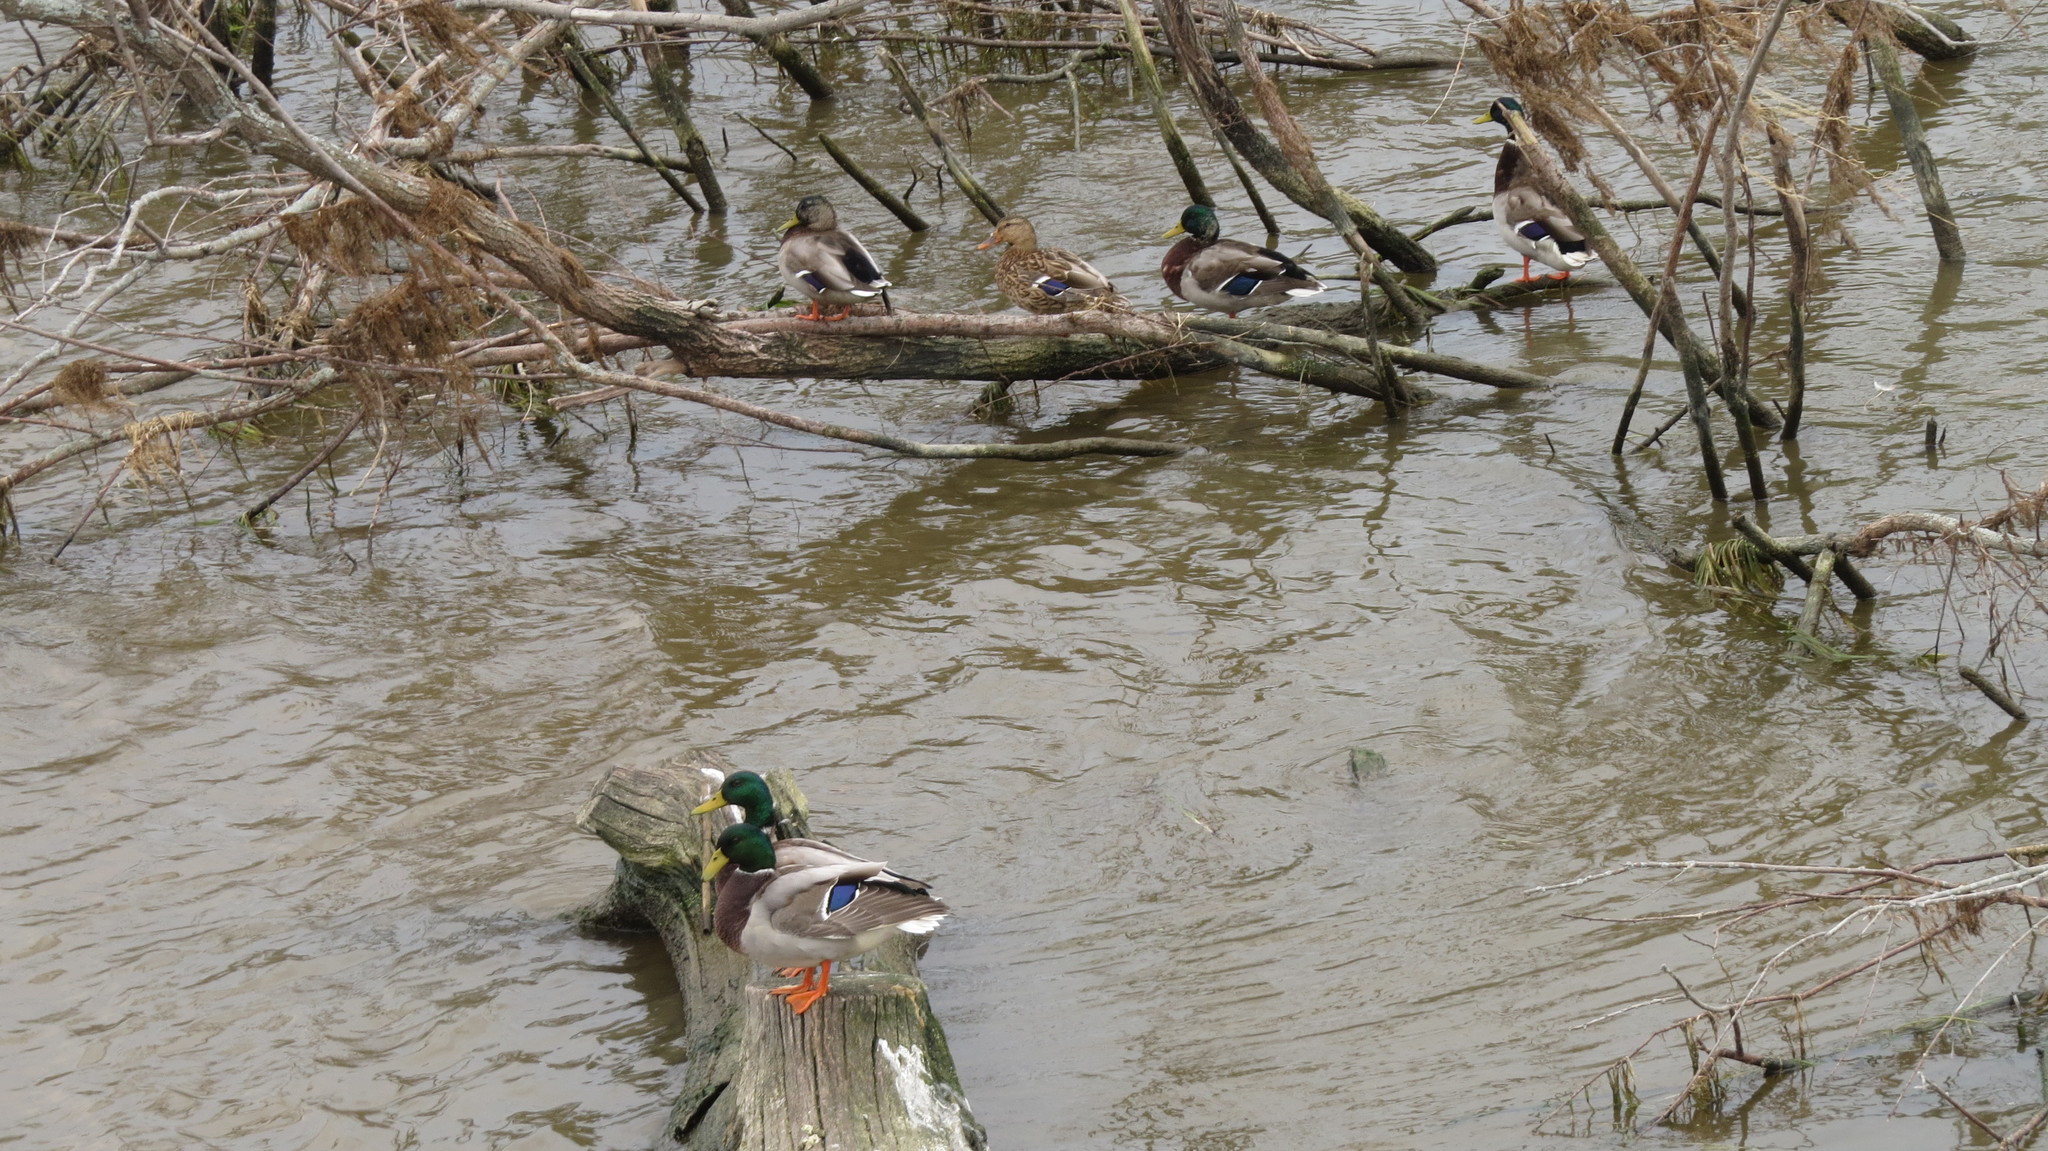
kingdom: Animalia
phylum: Chordata
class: Aves
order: Anseriformes
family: Anatidae
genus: Anas
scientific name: Anas platyrhynchos
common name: Mallard
